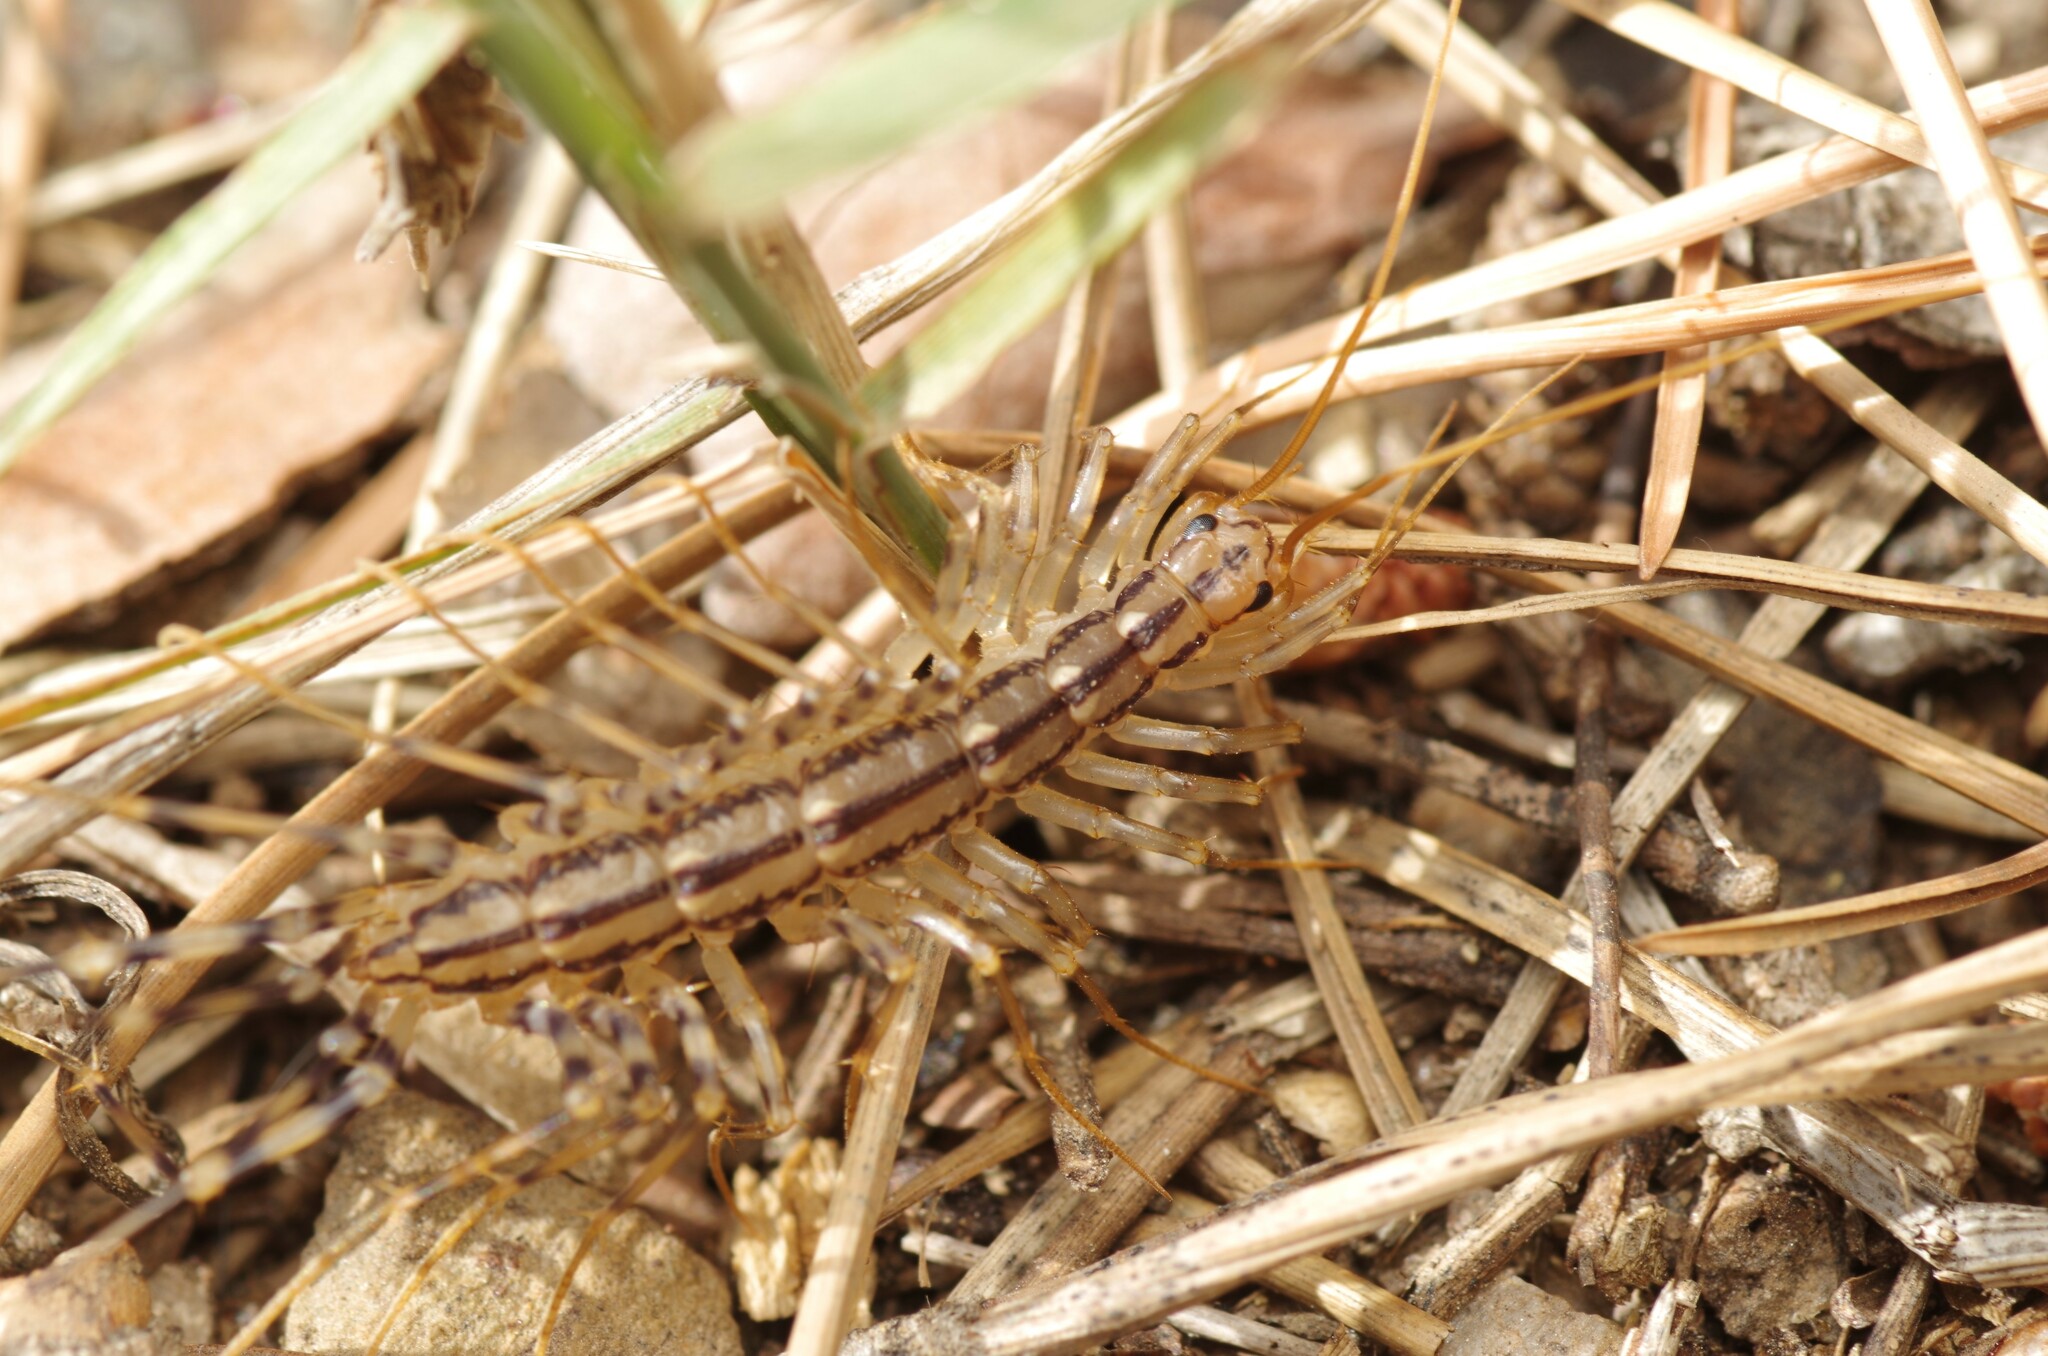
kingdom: Animalia
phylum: Arthropoda
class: Chilopoda
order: Scutigeromorpha
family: Scutigeridae
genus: Scutigera
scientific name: Scutigera coleoptrata
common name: House centipede
